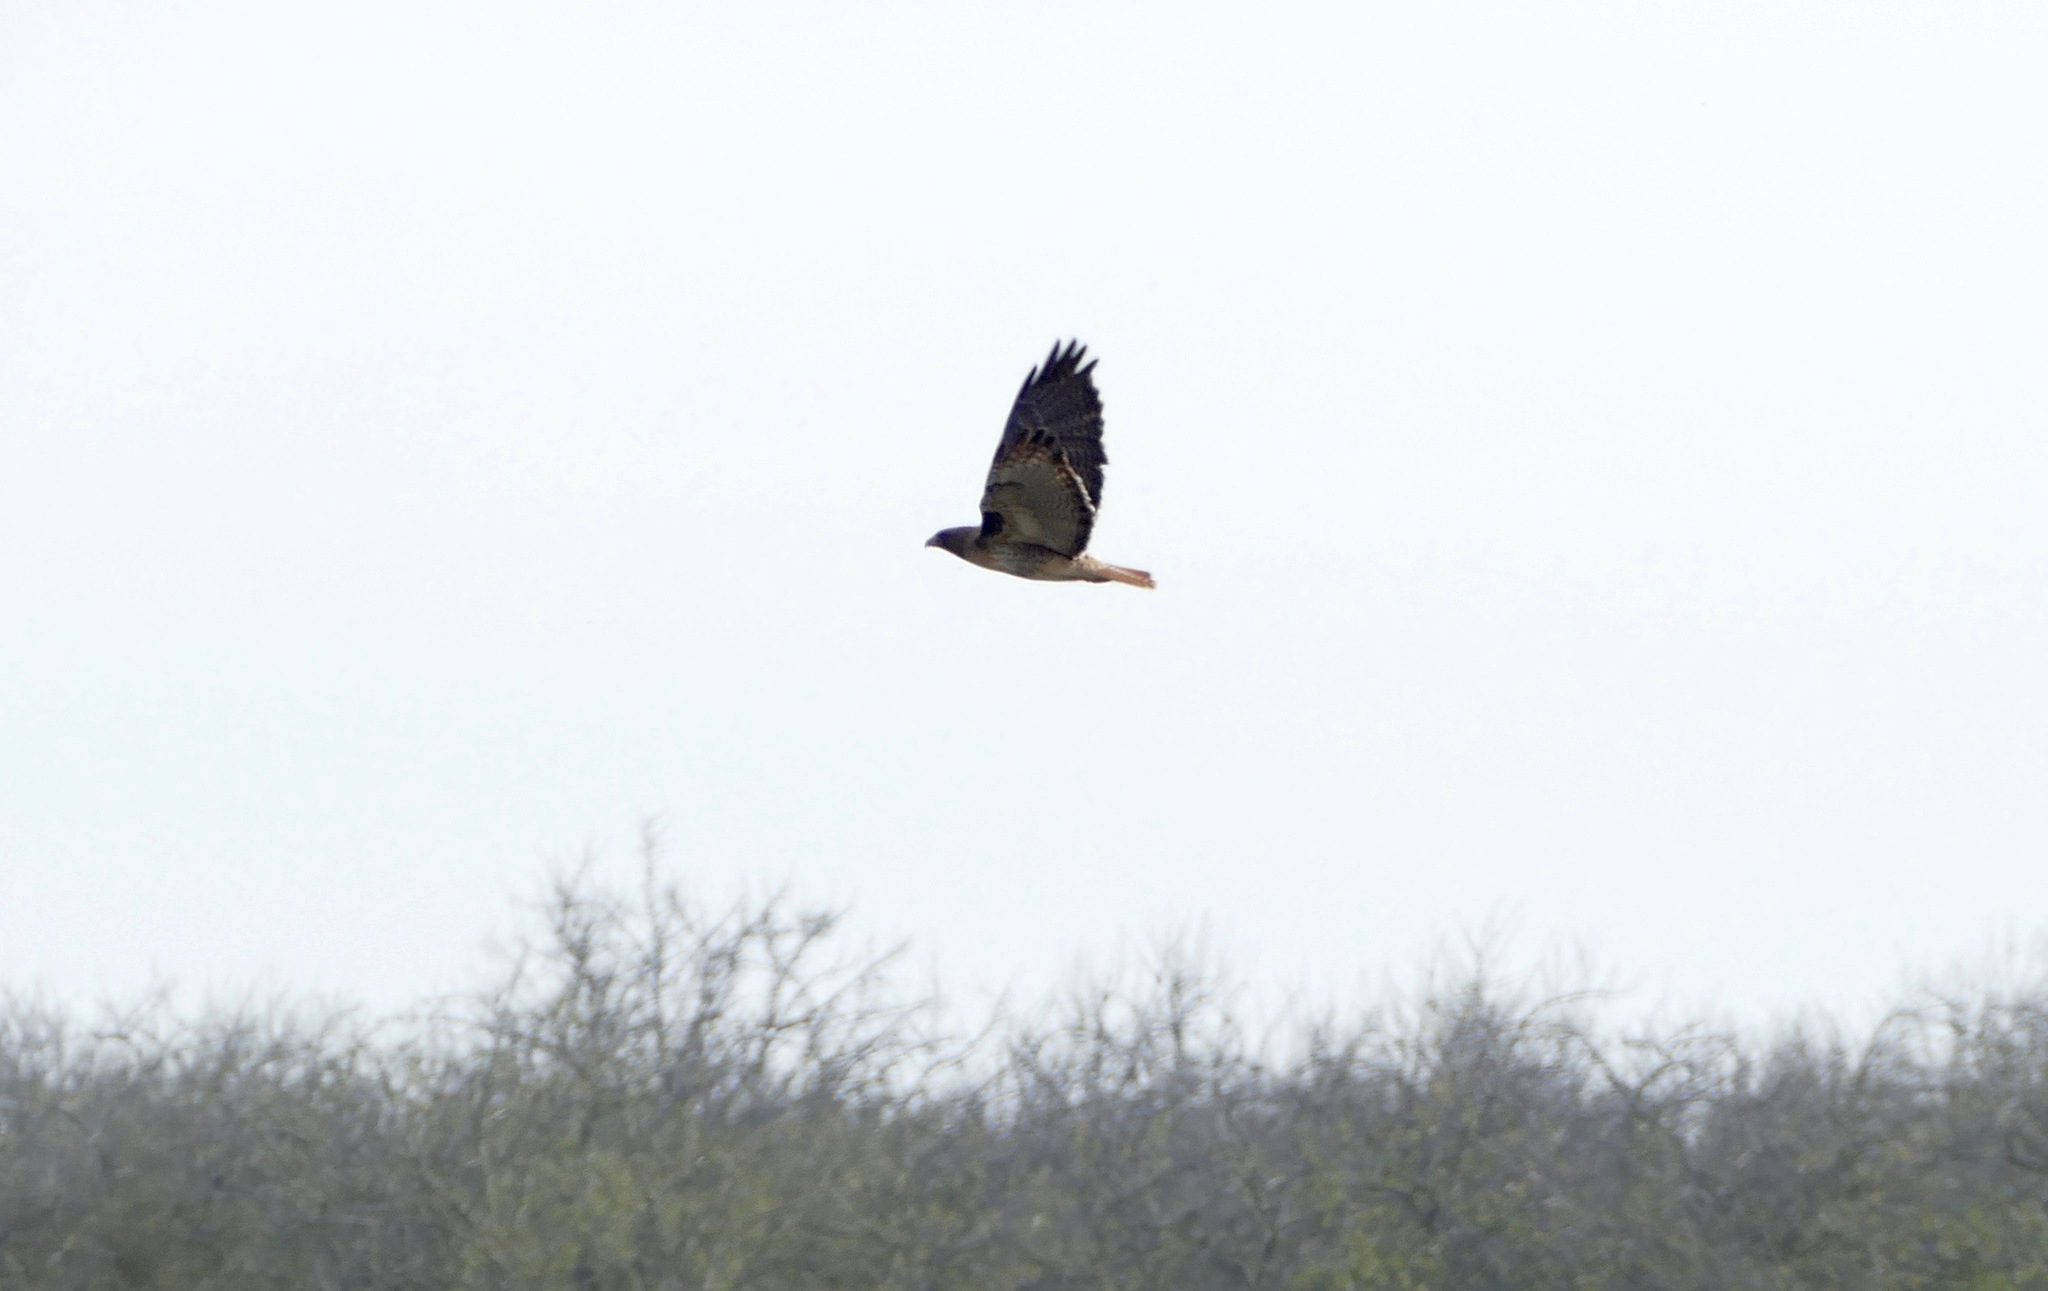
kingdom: Animalia
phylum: Chordata
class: Aves
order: Accipitriformes
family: Accipitridae
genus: Buteo
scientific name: Buteo jamaicensis
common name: Red-tailed hawk
